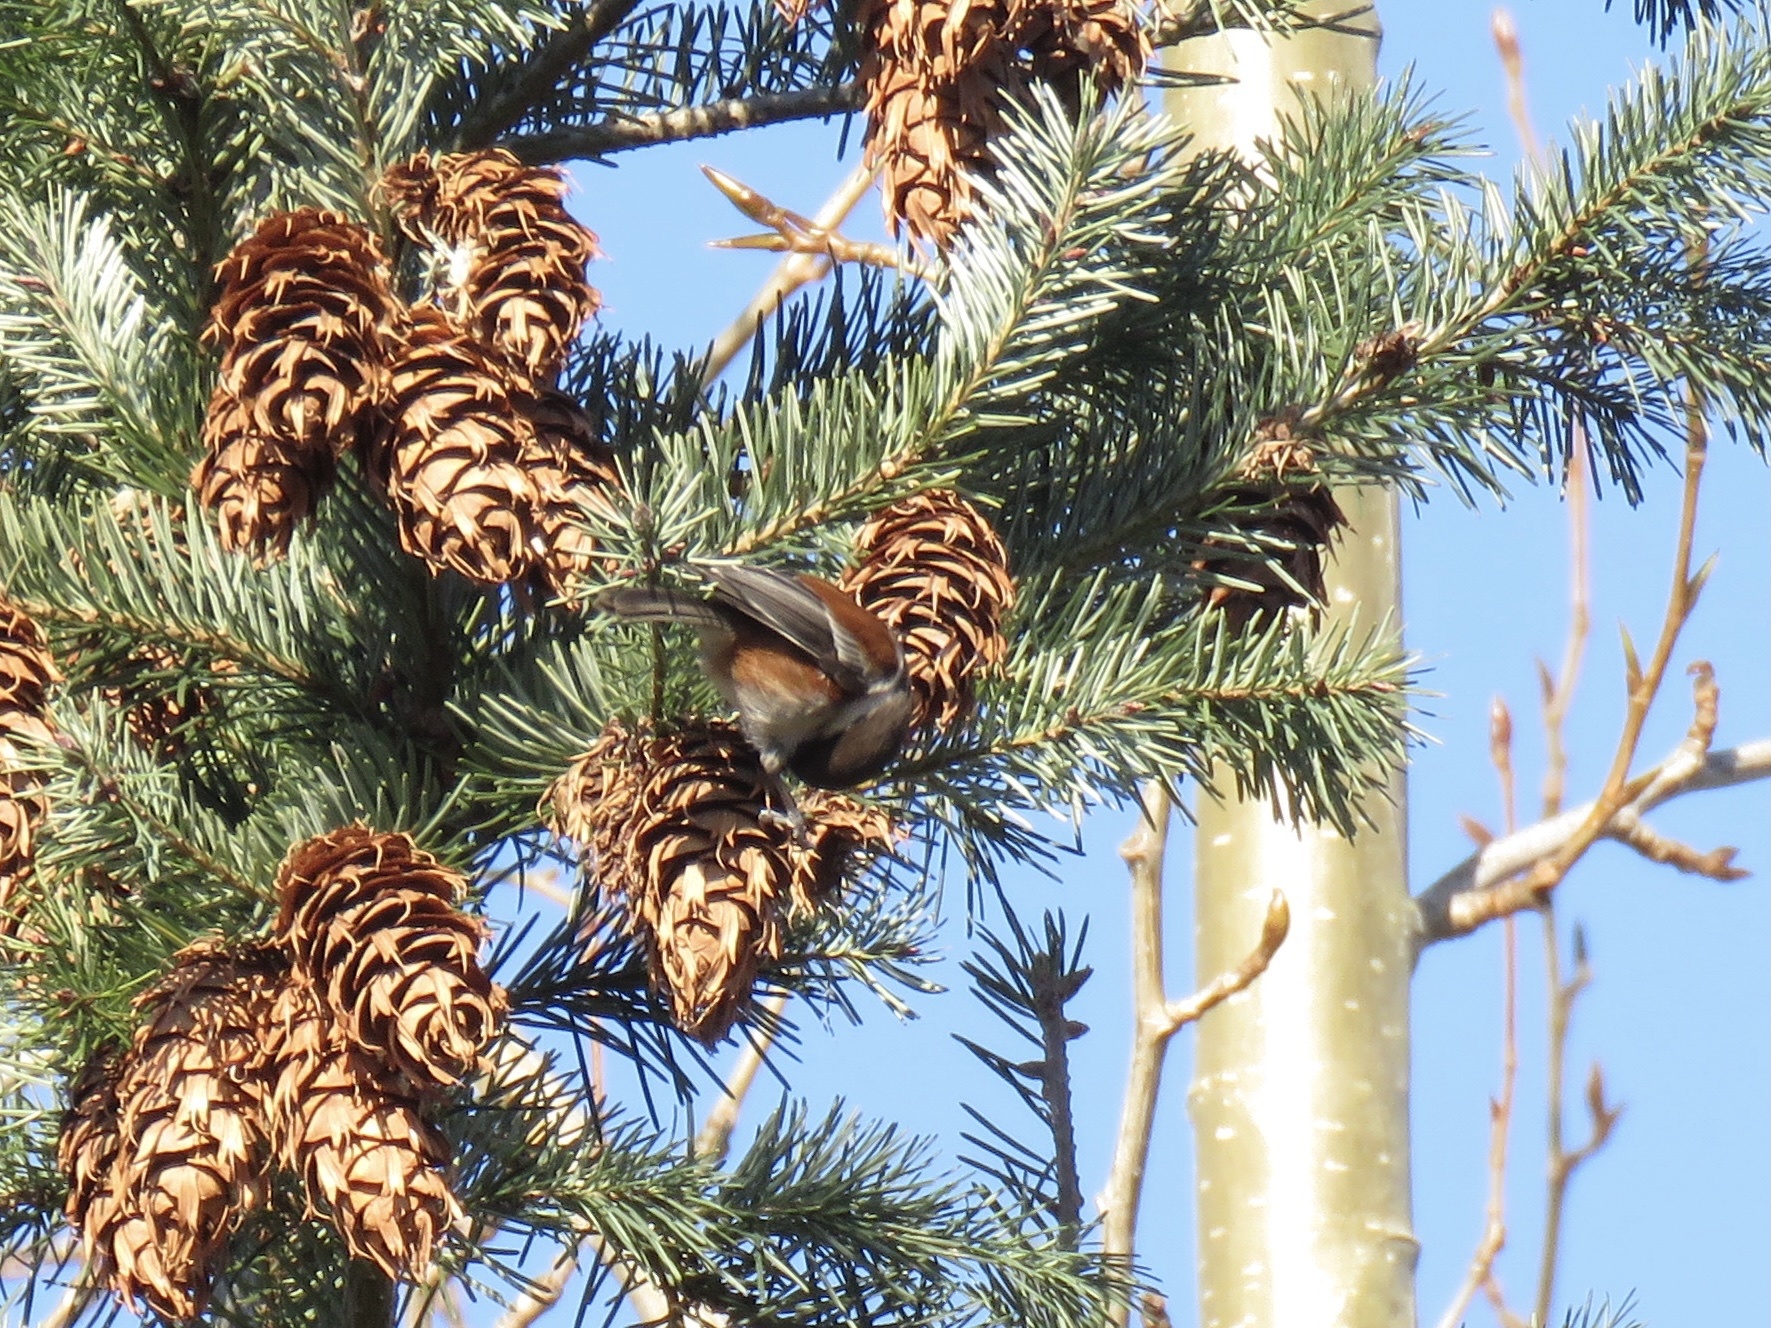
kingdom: Animalia
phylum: Chordata
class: Aves
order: Passeriformes
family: Paridae
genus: Poecile
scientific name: Poecile rufescens
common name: Chestnut-backed chickadee
